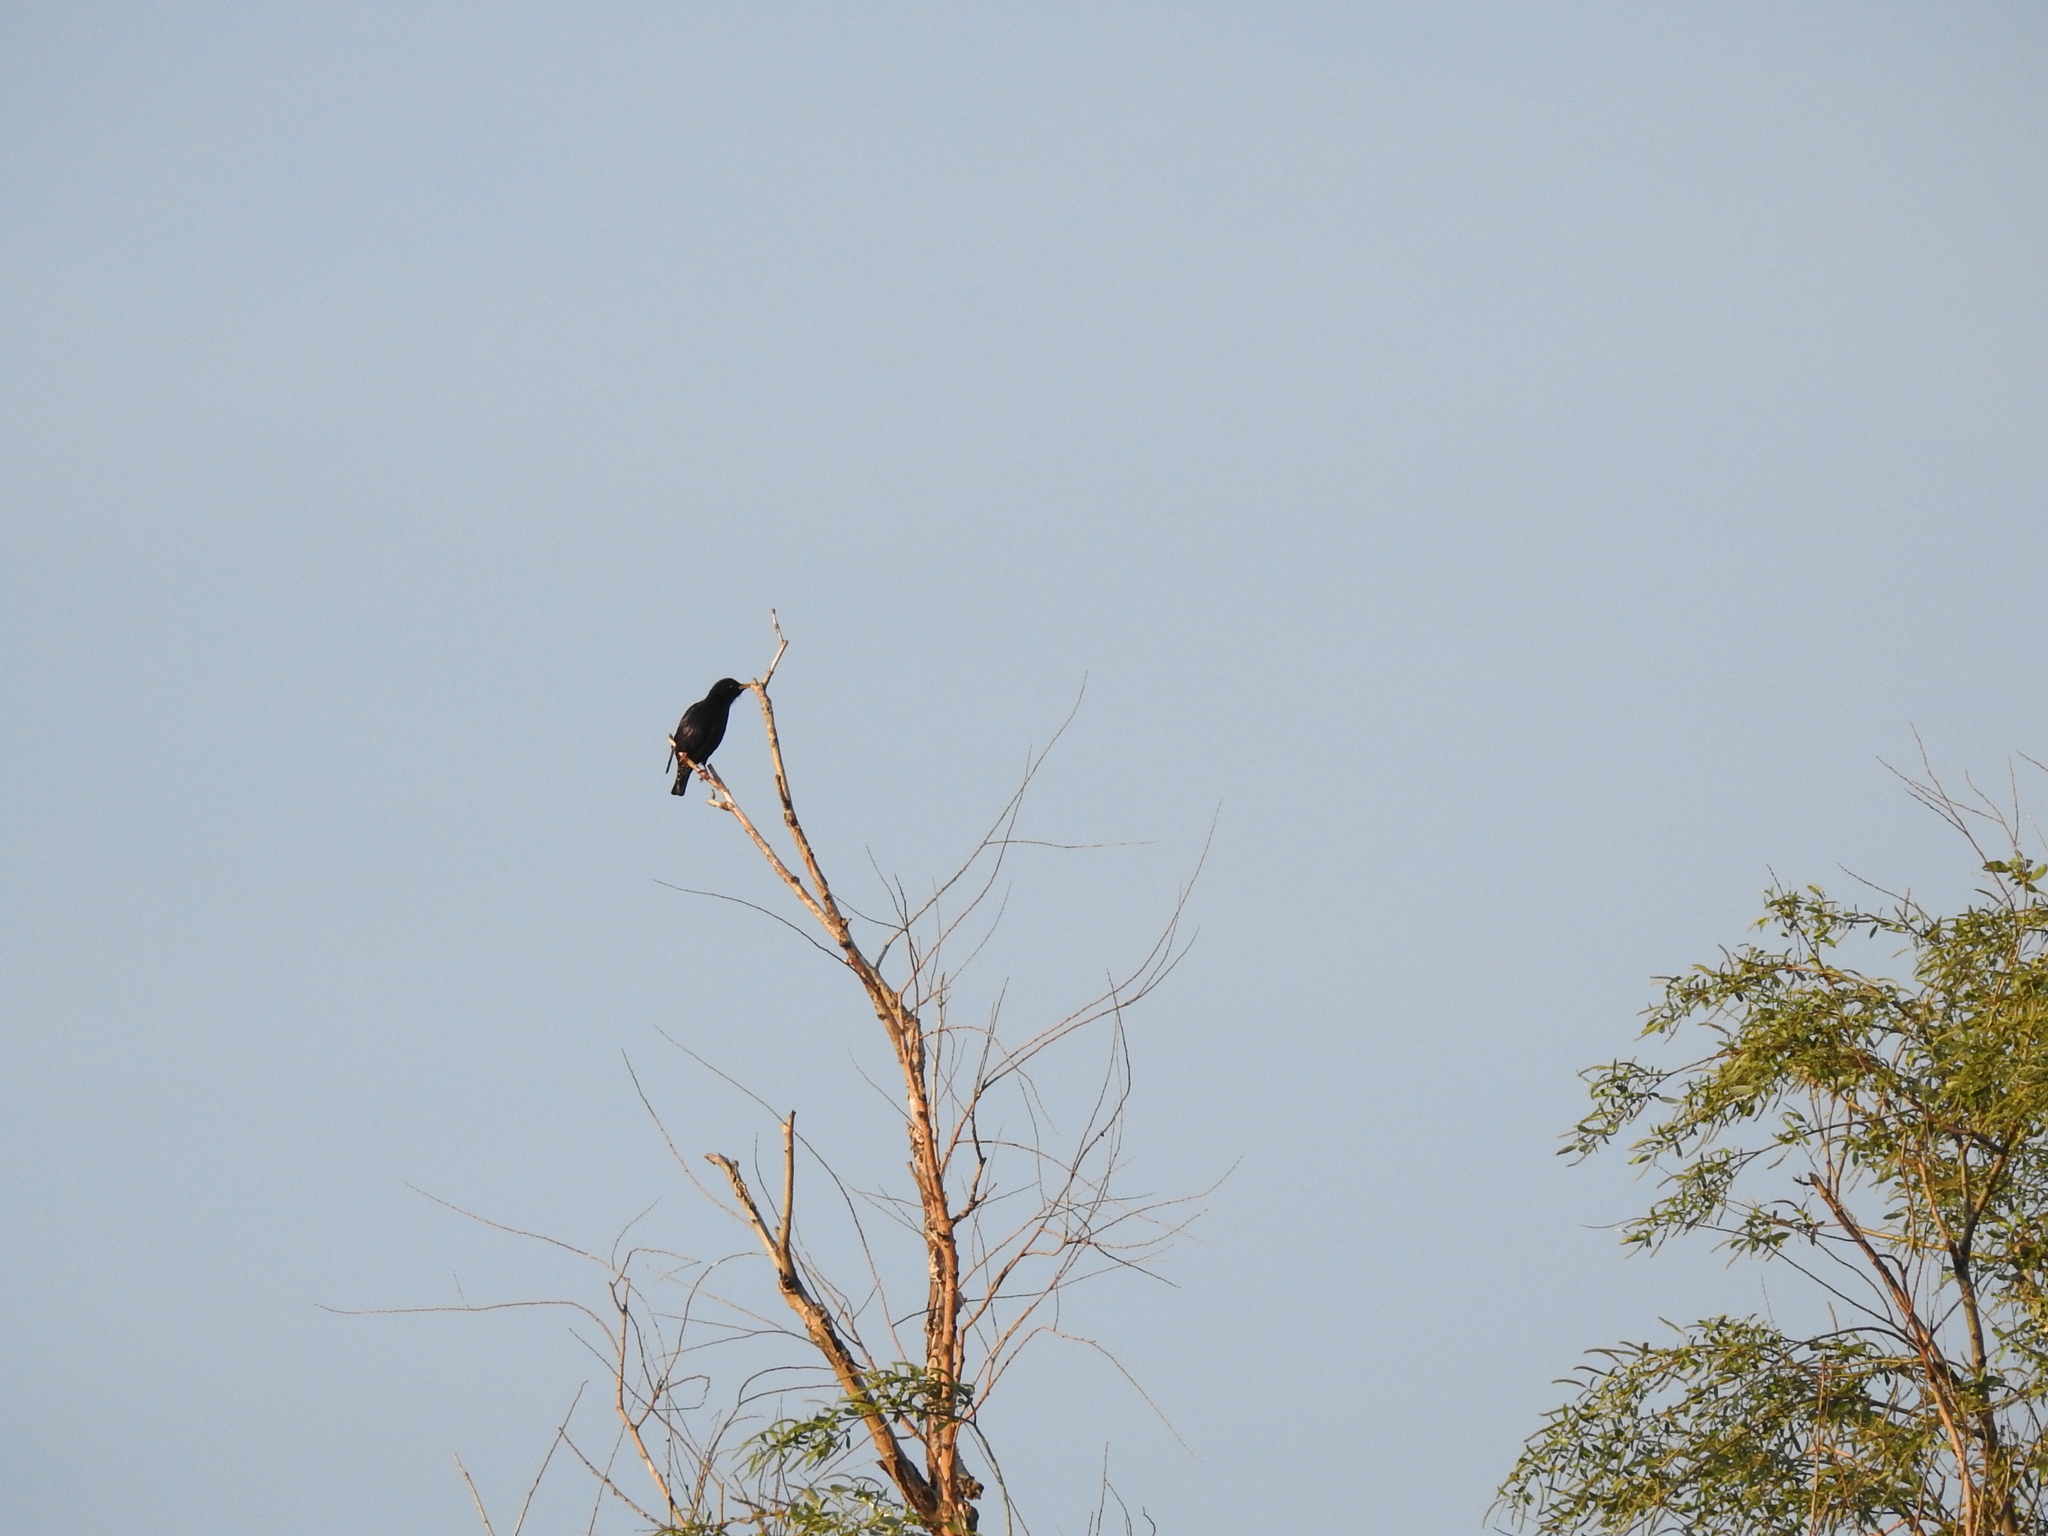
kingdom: Animalia
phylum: Chordata
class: Aves
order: Passeriformes
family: Sturnidae
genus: Sturnus
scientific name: Sturnus vulgaris
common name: Common starling
